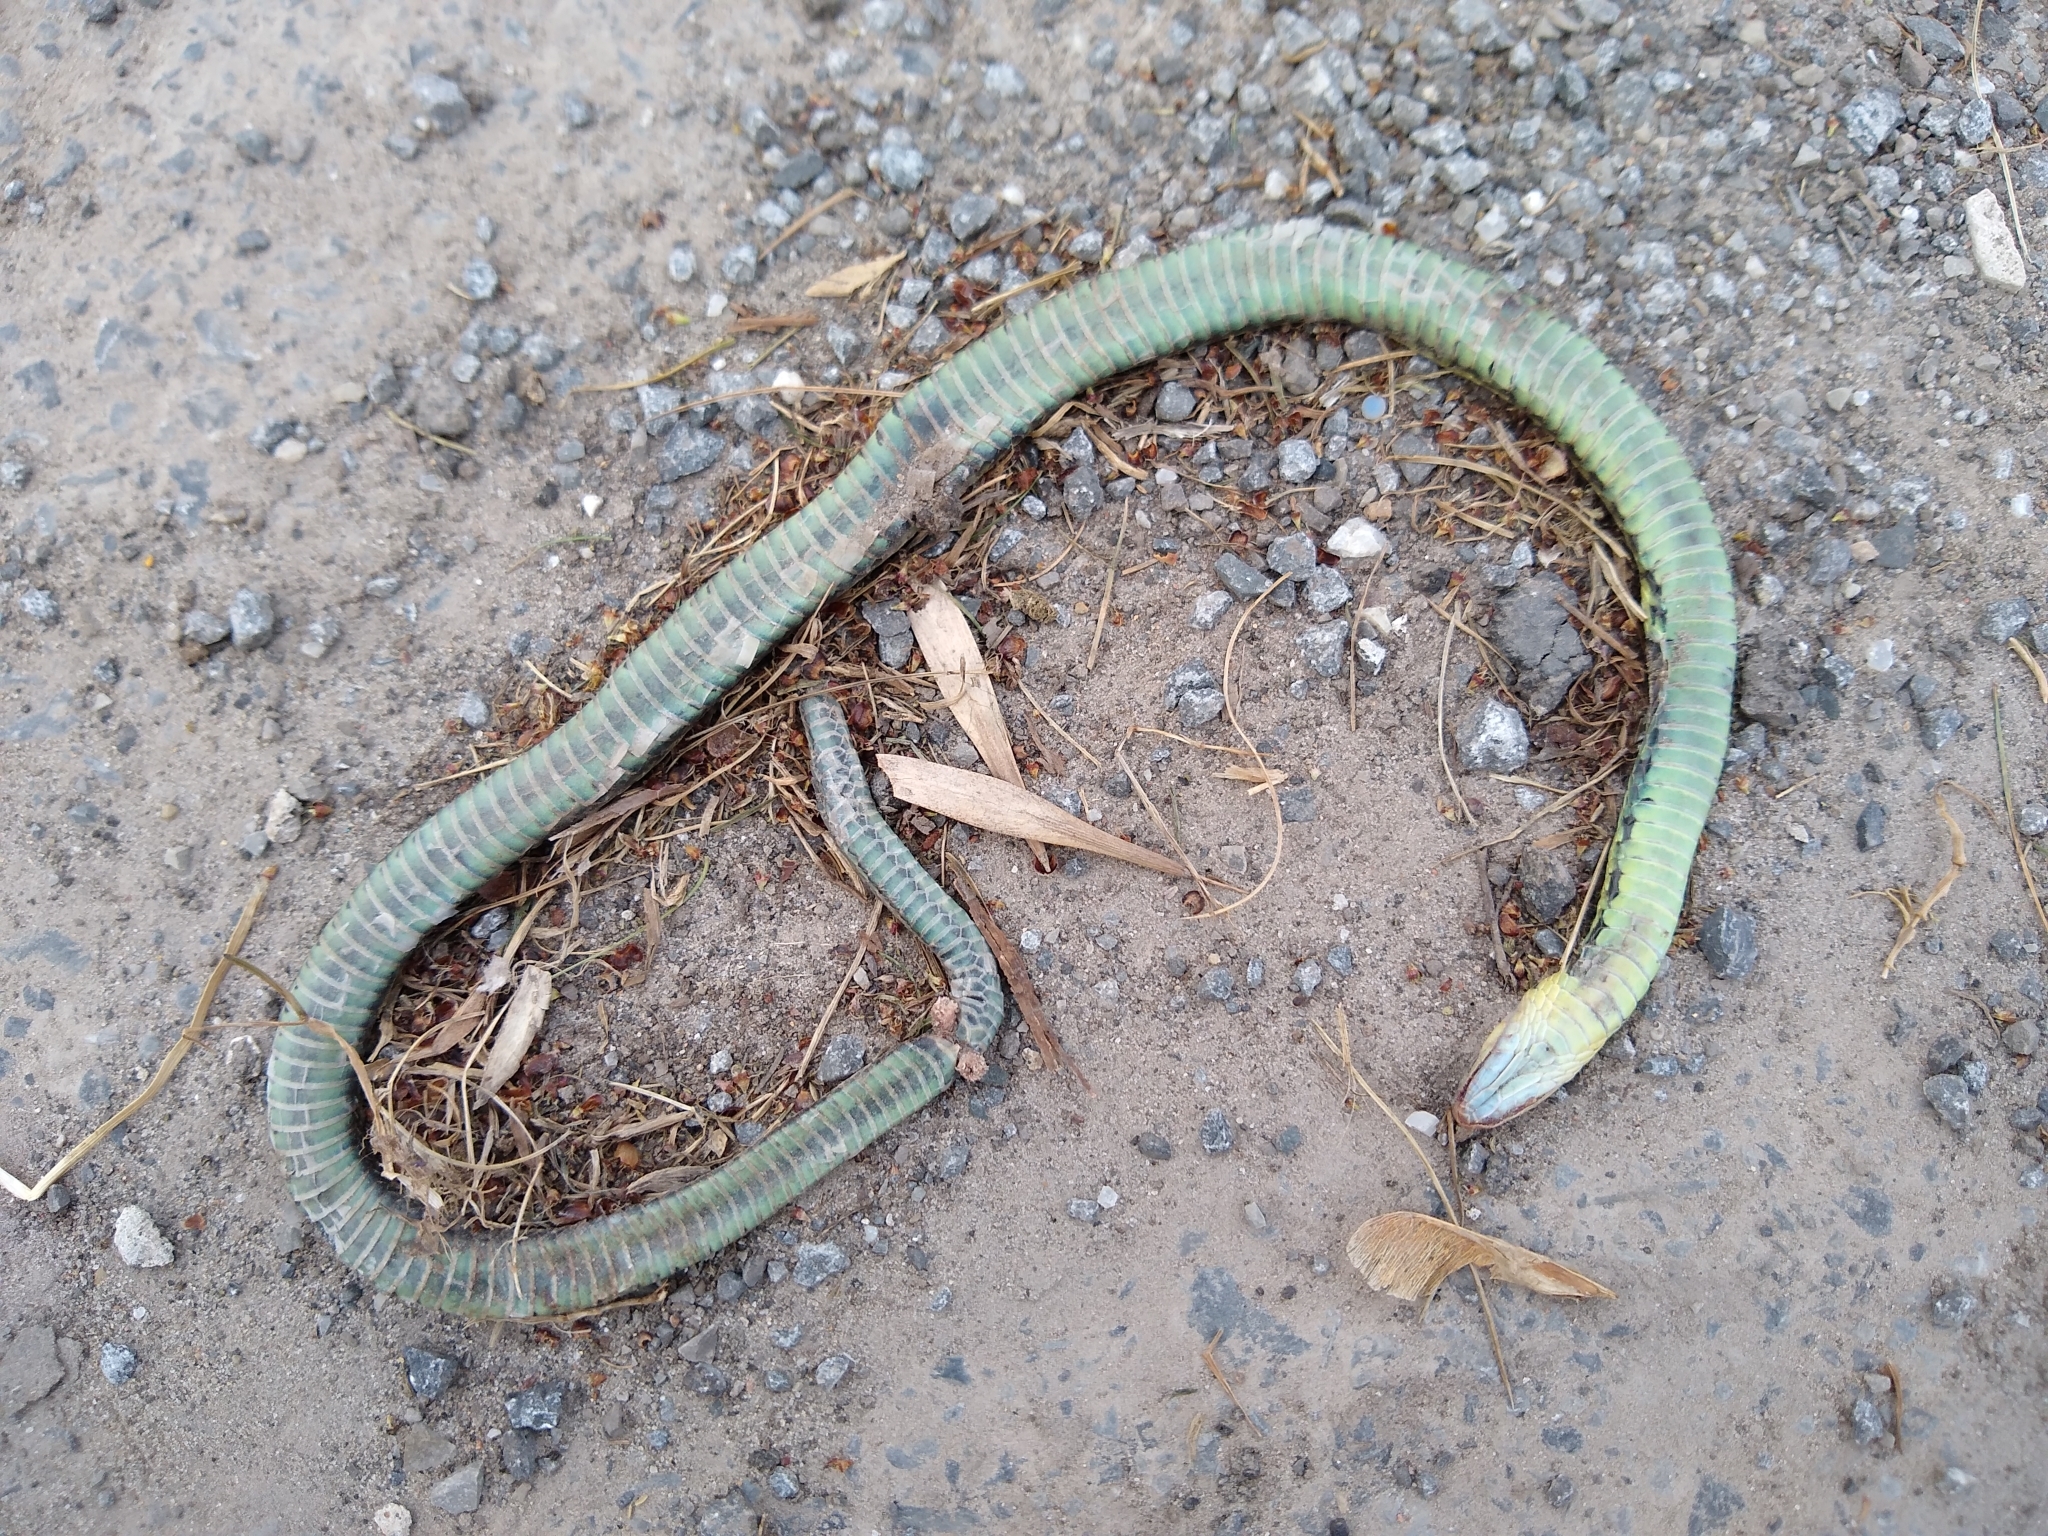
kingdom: Animalia
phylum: Chordata
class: Squamata
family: Colubridae
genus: Thamnophis
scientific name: Thamnophis sirtalis
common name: Common garter snake
